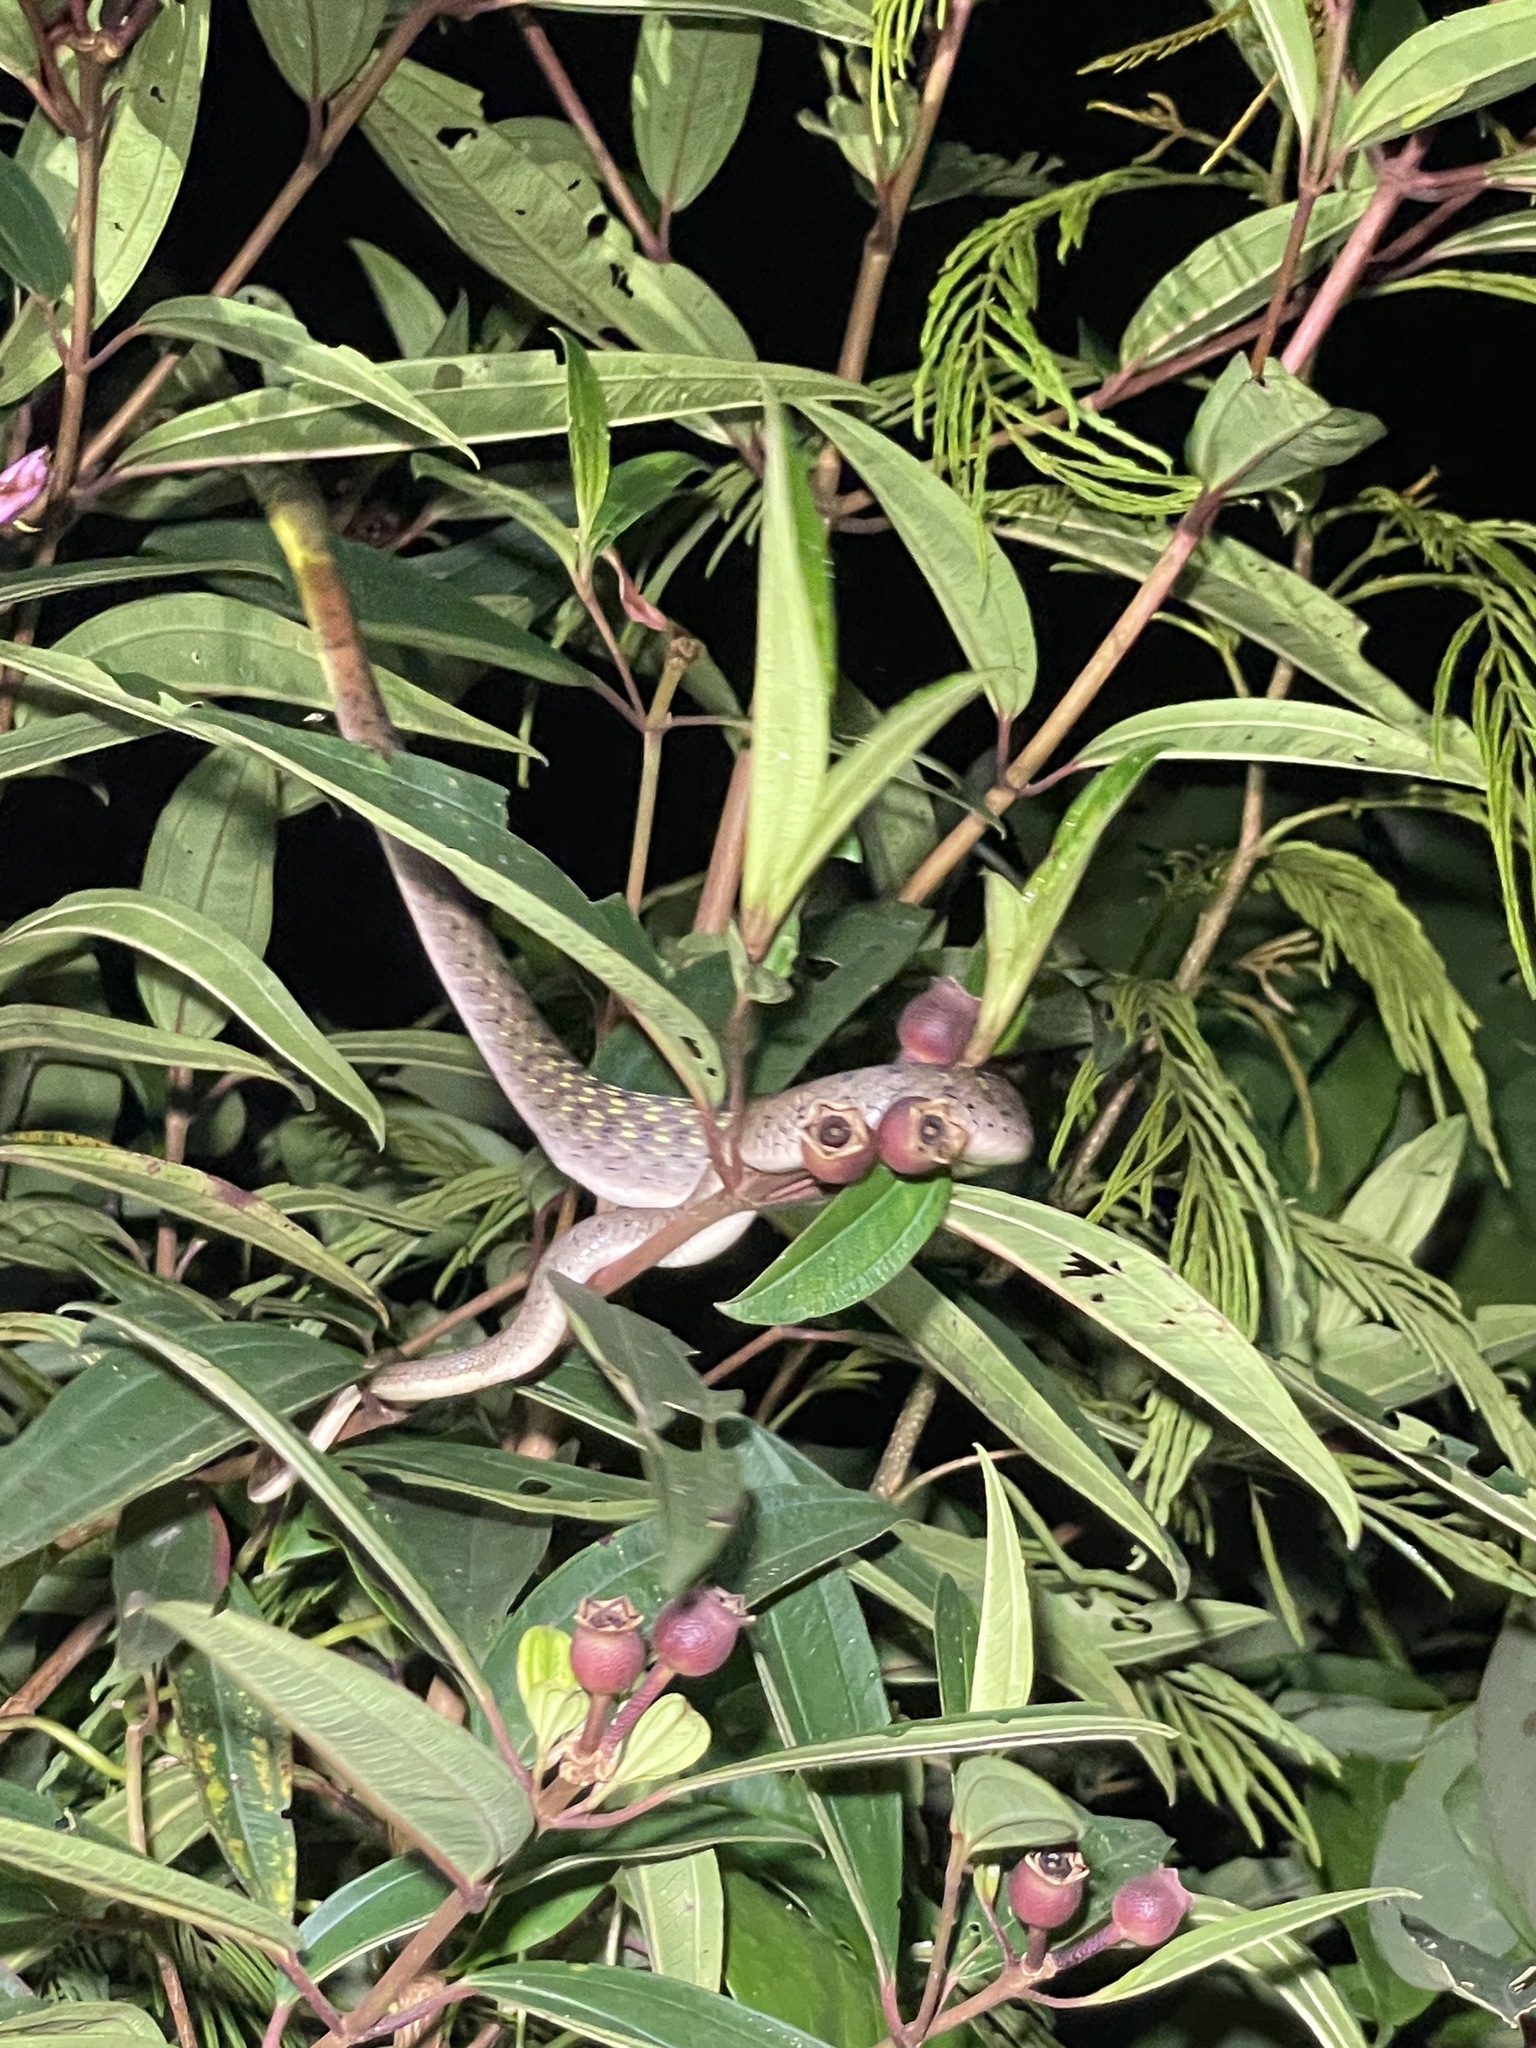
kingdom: Animalia
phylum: Chordata
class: Squamata
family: Colubridae
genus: Rhabdophis
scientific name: Rhabdophis
